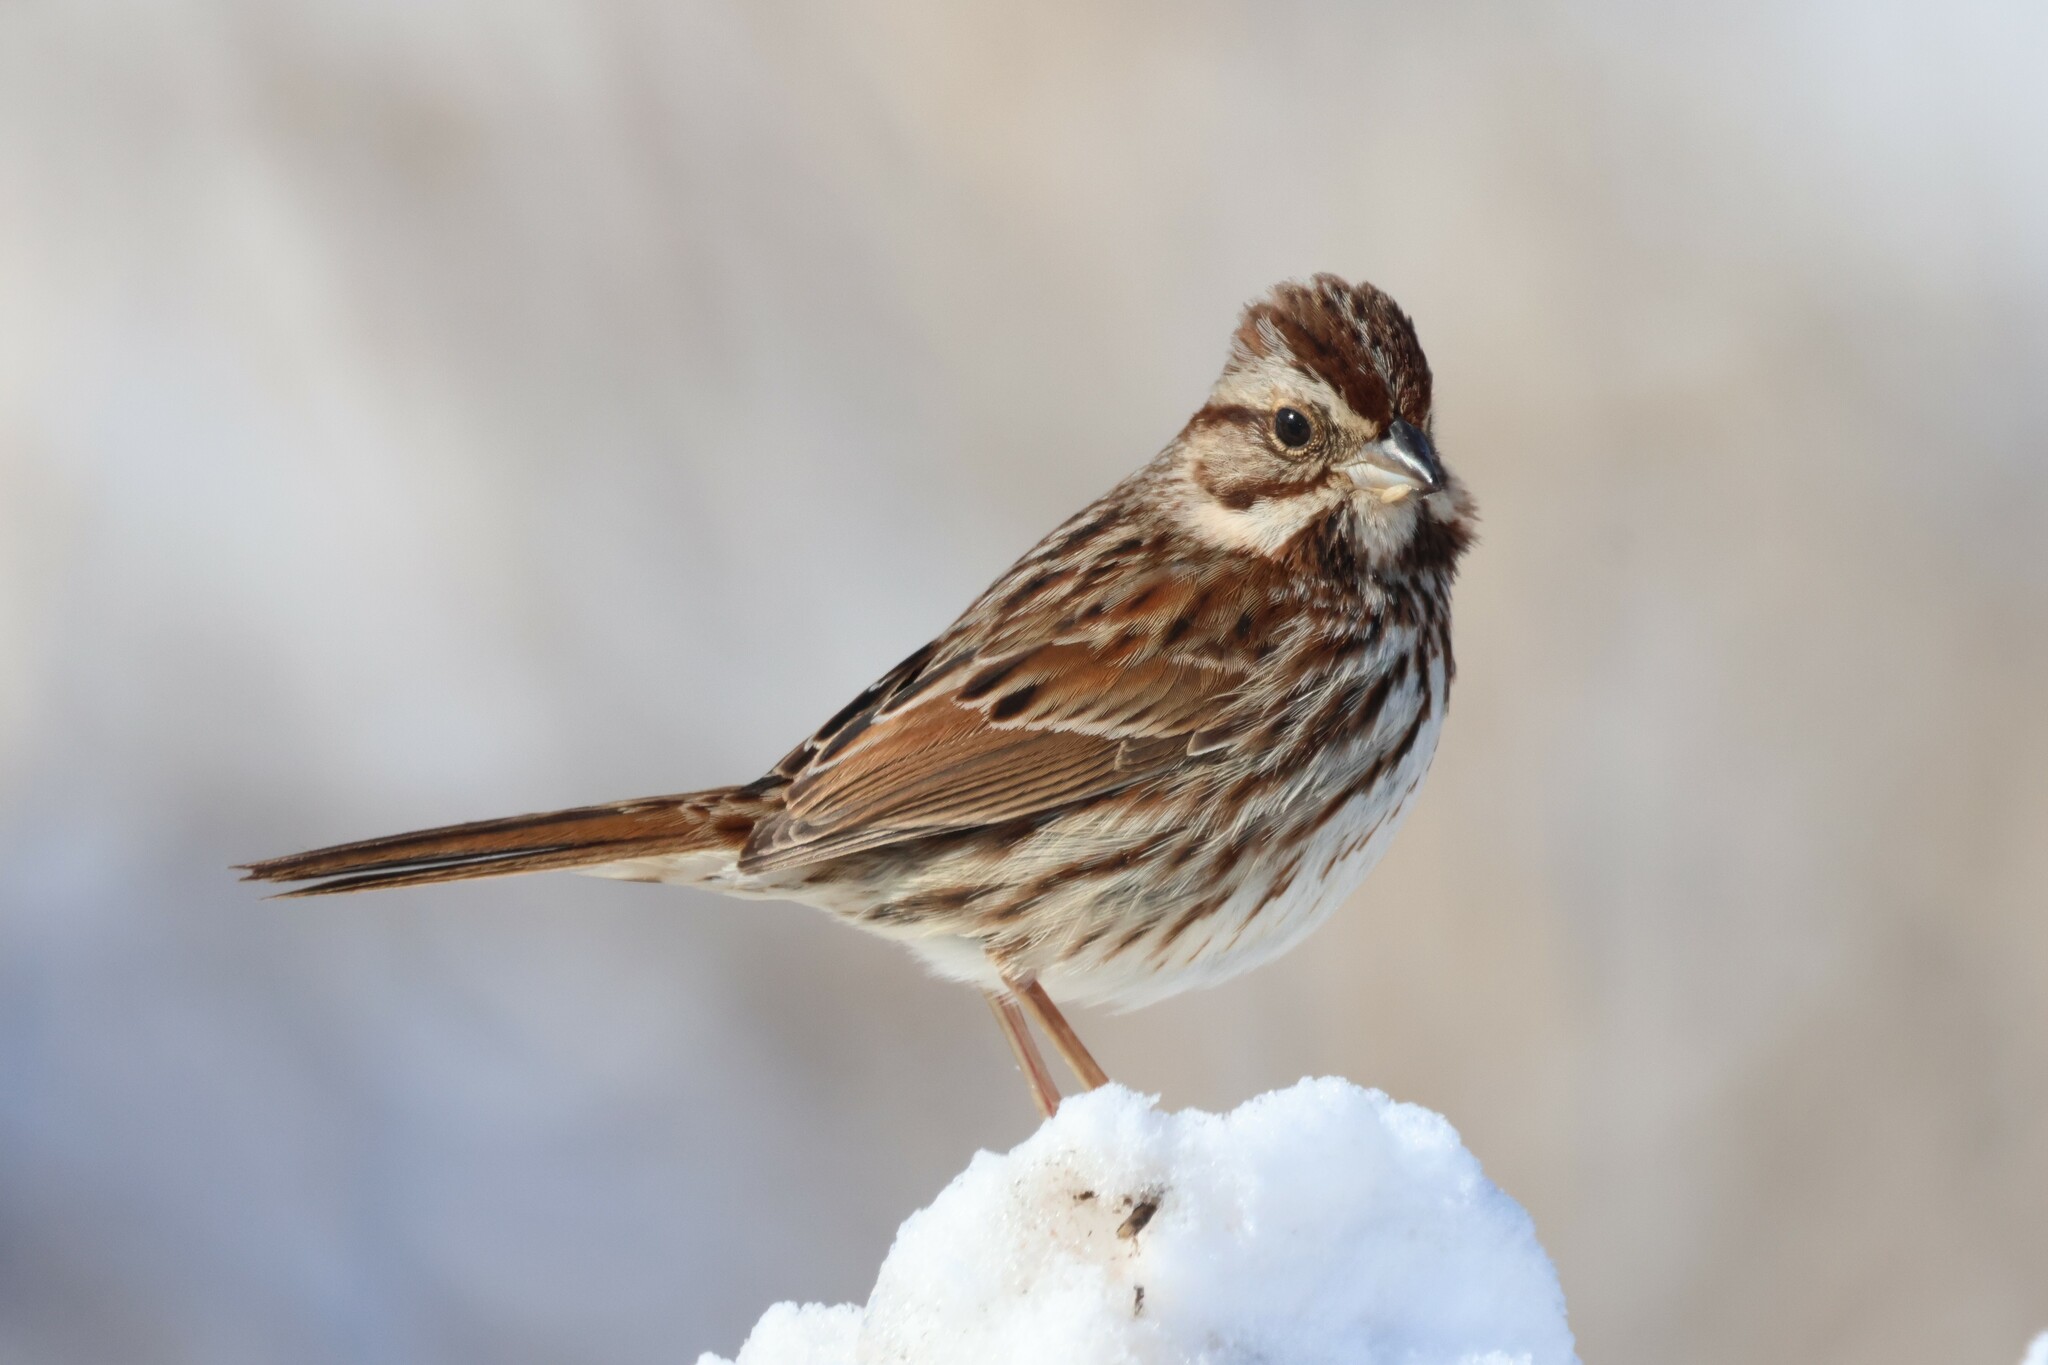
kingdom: Animalia
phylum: Chordata
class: Aves
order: Passeriformes
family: Passerellidae
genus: Melospiza
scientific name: Melospiza melodia
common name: Song sparrow
